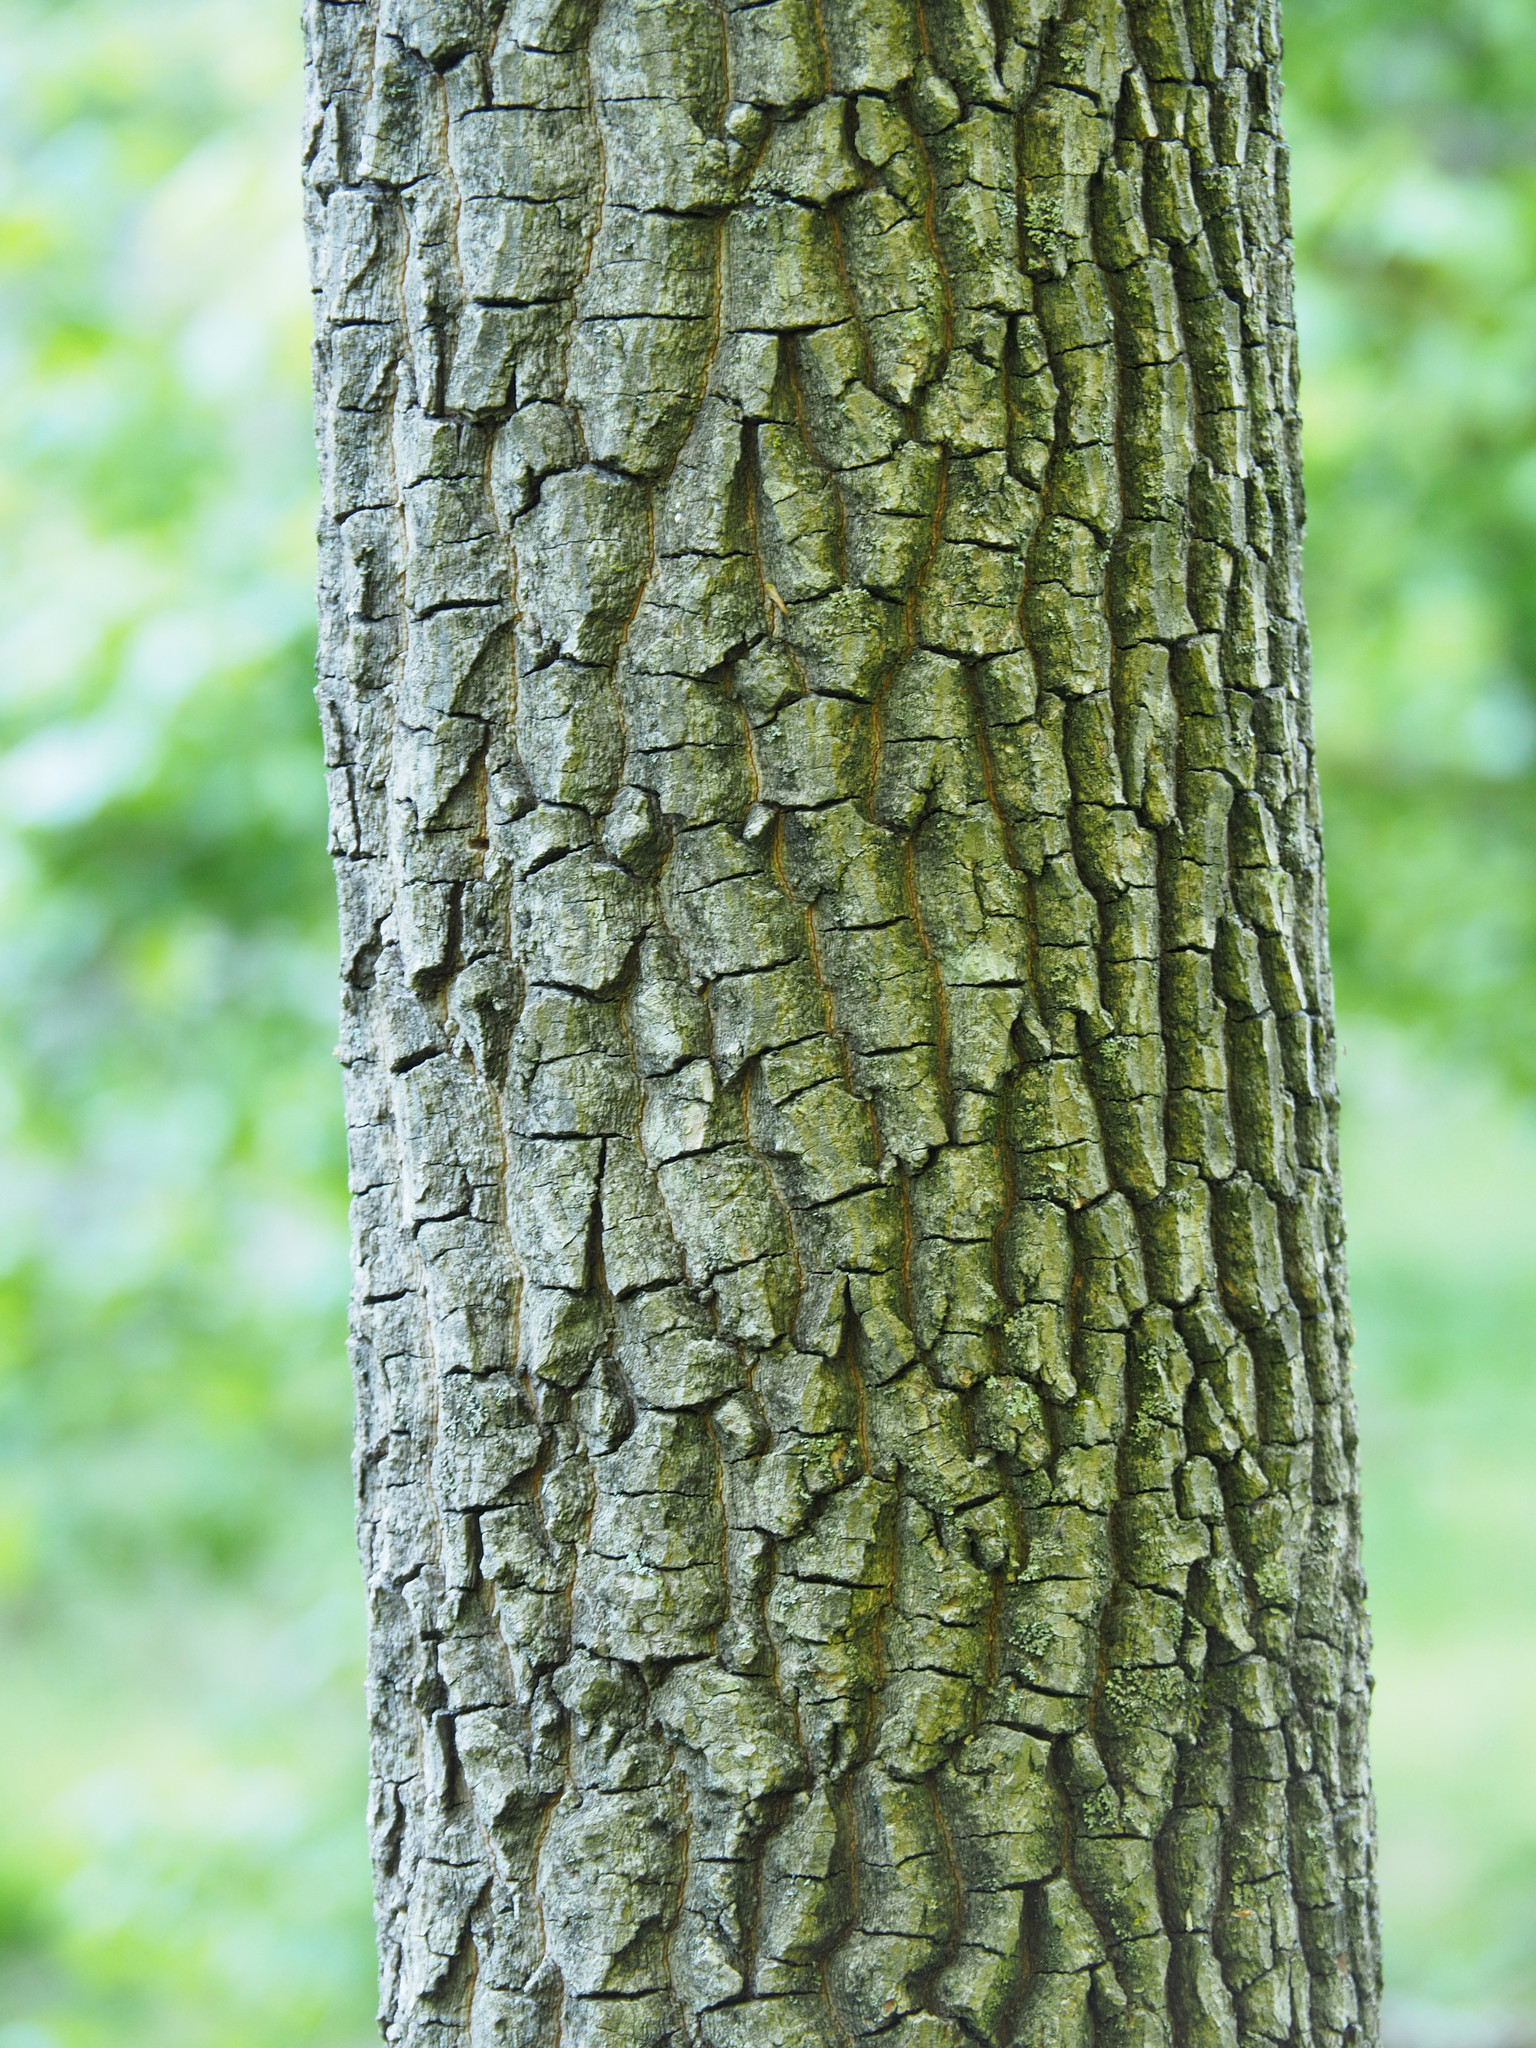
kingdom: Plantae
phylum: Tracheophyta
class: Magnoliopsida
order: Ericales
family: Ebenaceae
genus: Diospyros
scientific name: Diospyros virginiana
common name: Persimmon
